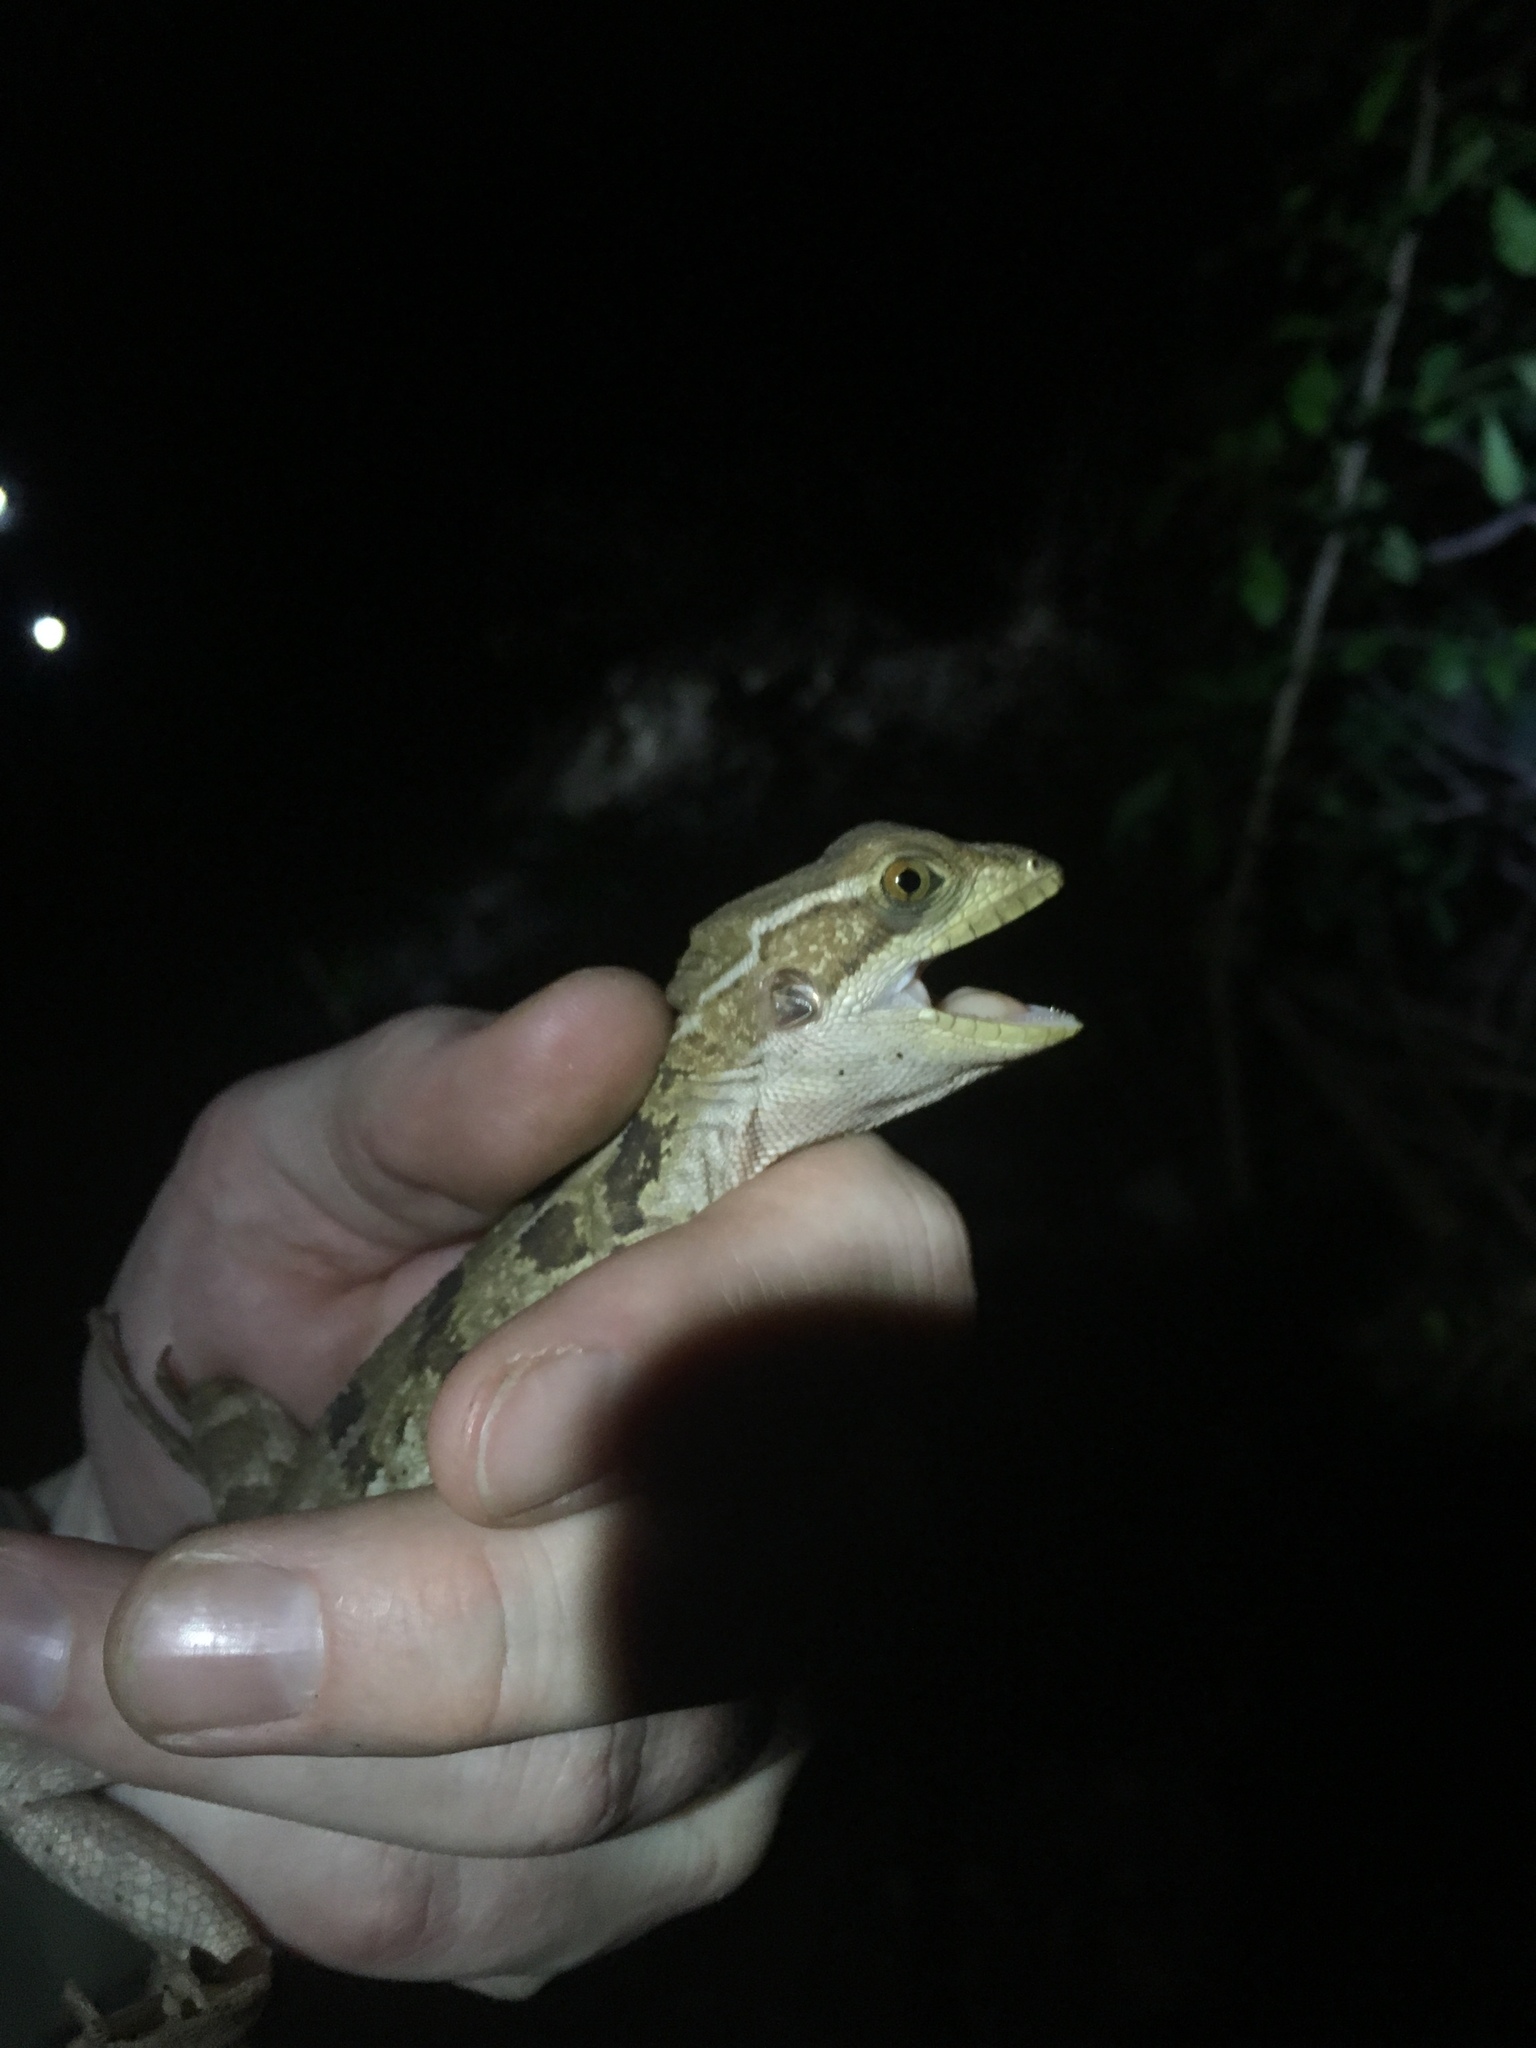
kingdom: Animalia
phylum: Chordata
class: Squamata
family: Corytophanidae
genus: Basiliscus
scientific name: Basiliscus vittatus
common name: Brown basilisk
